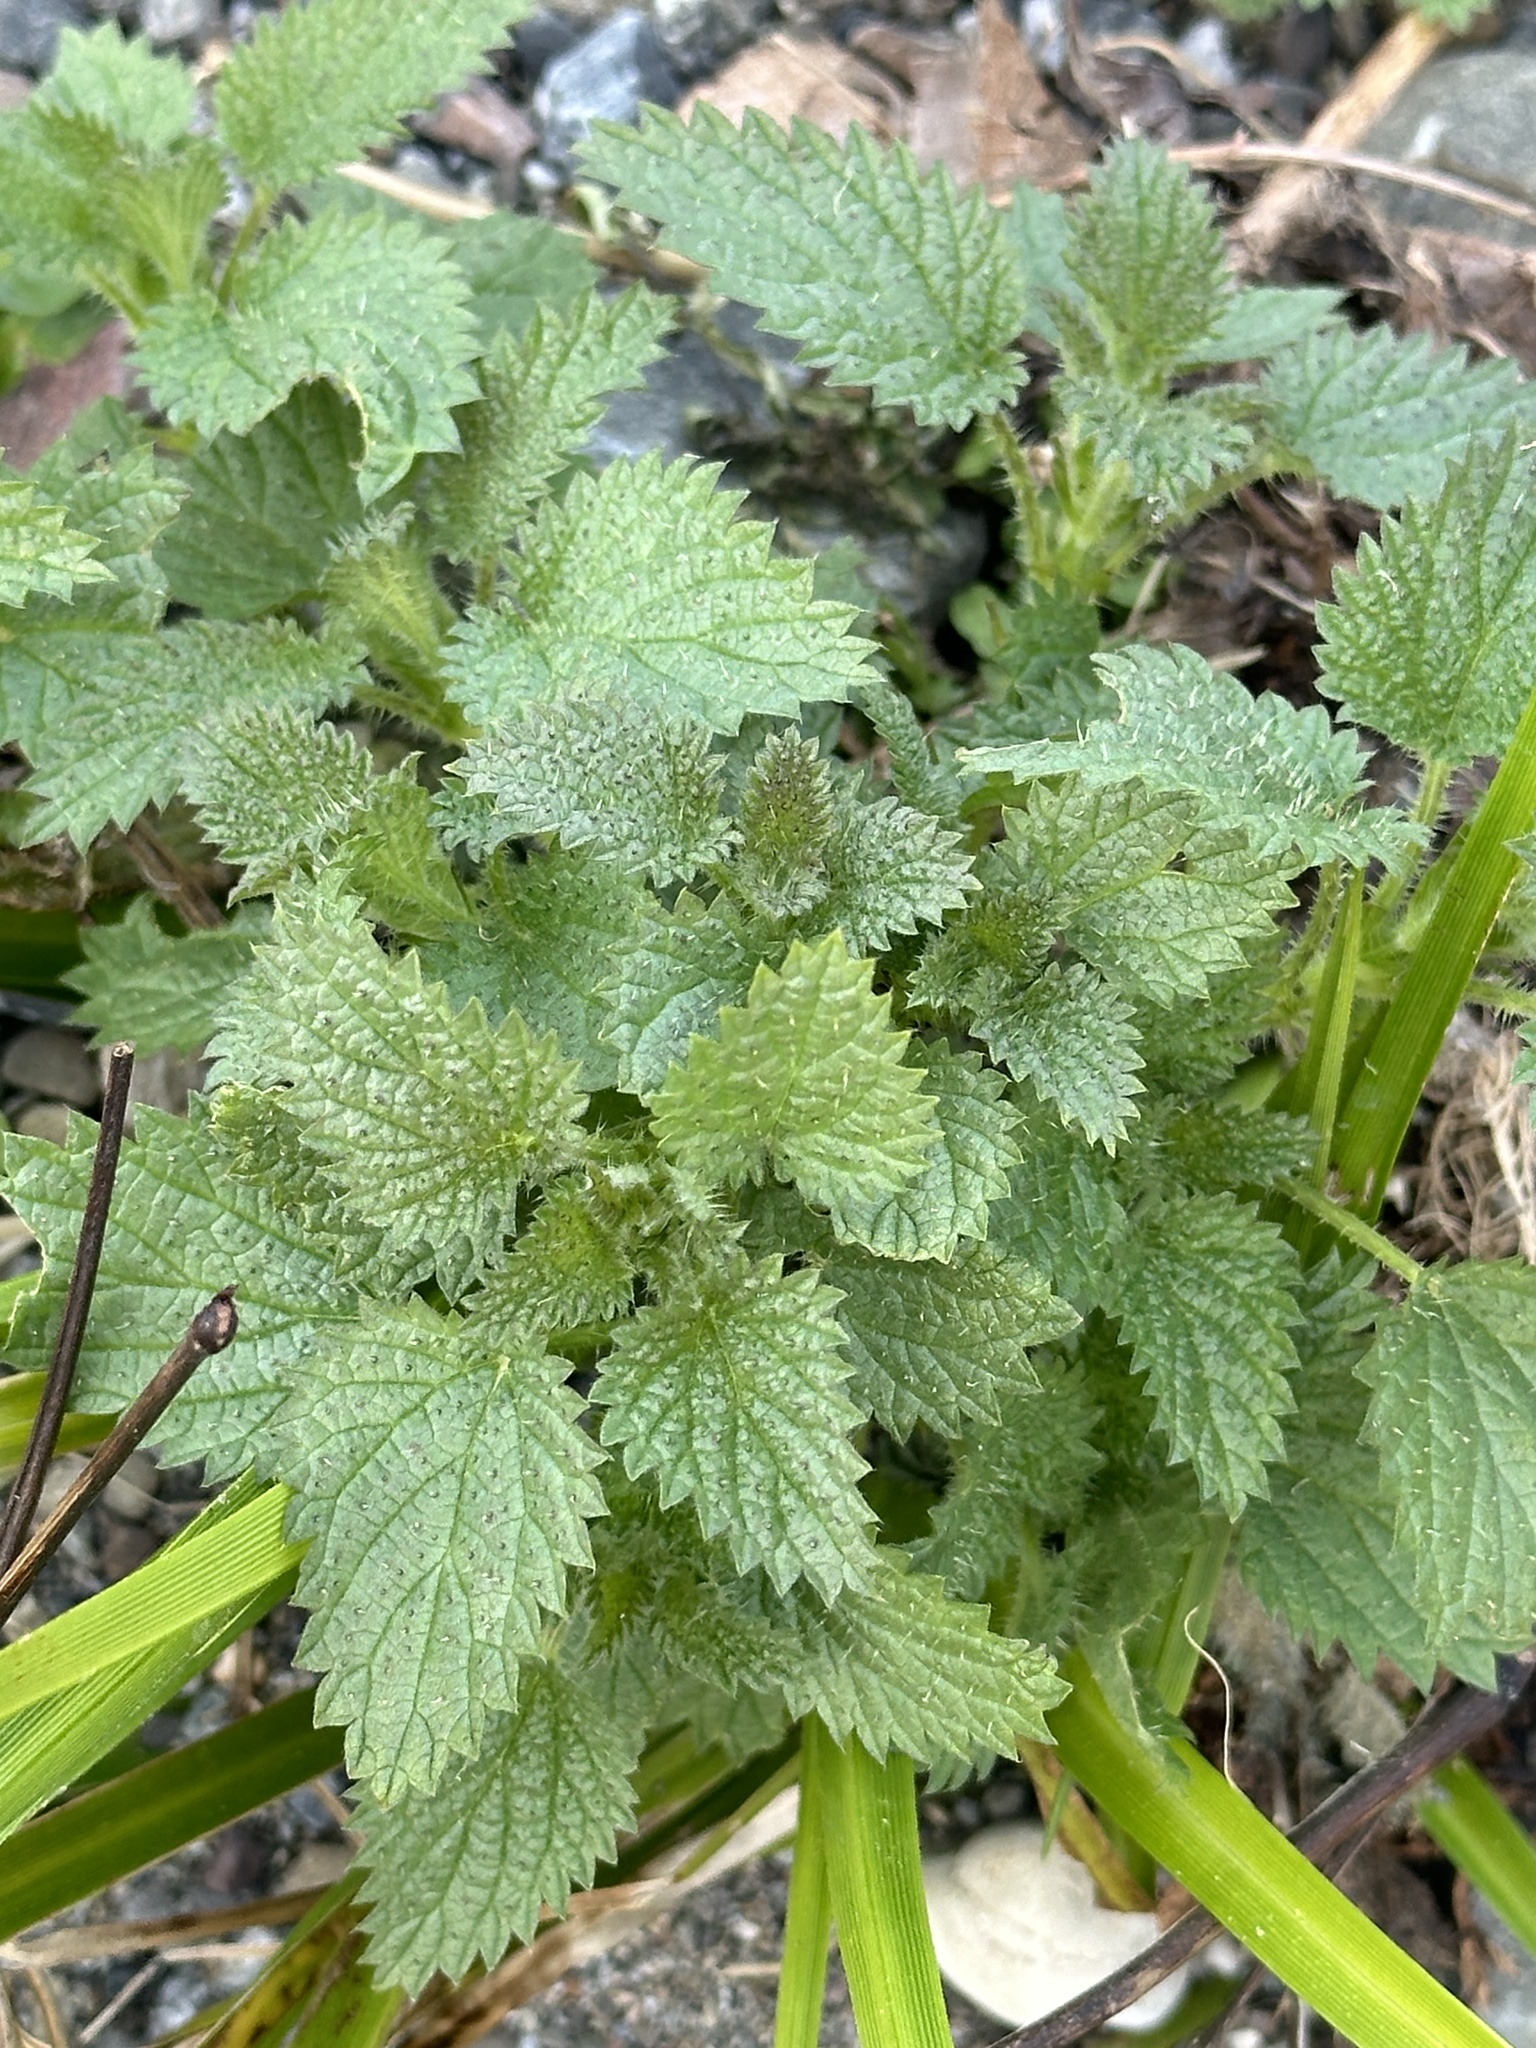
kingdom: Plantae
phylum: Tracheophyta
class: Magnoliopsida
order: Rosales
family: Urticaceae
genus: Urtica
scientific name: Urtica dioica
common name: Common nettle
